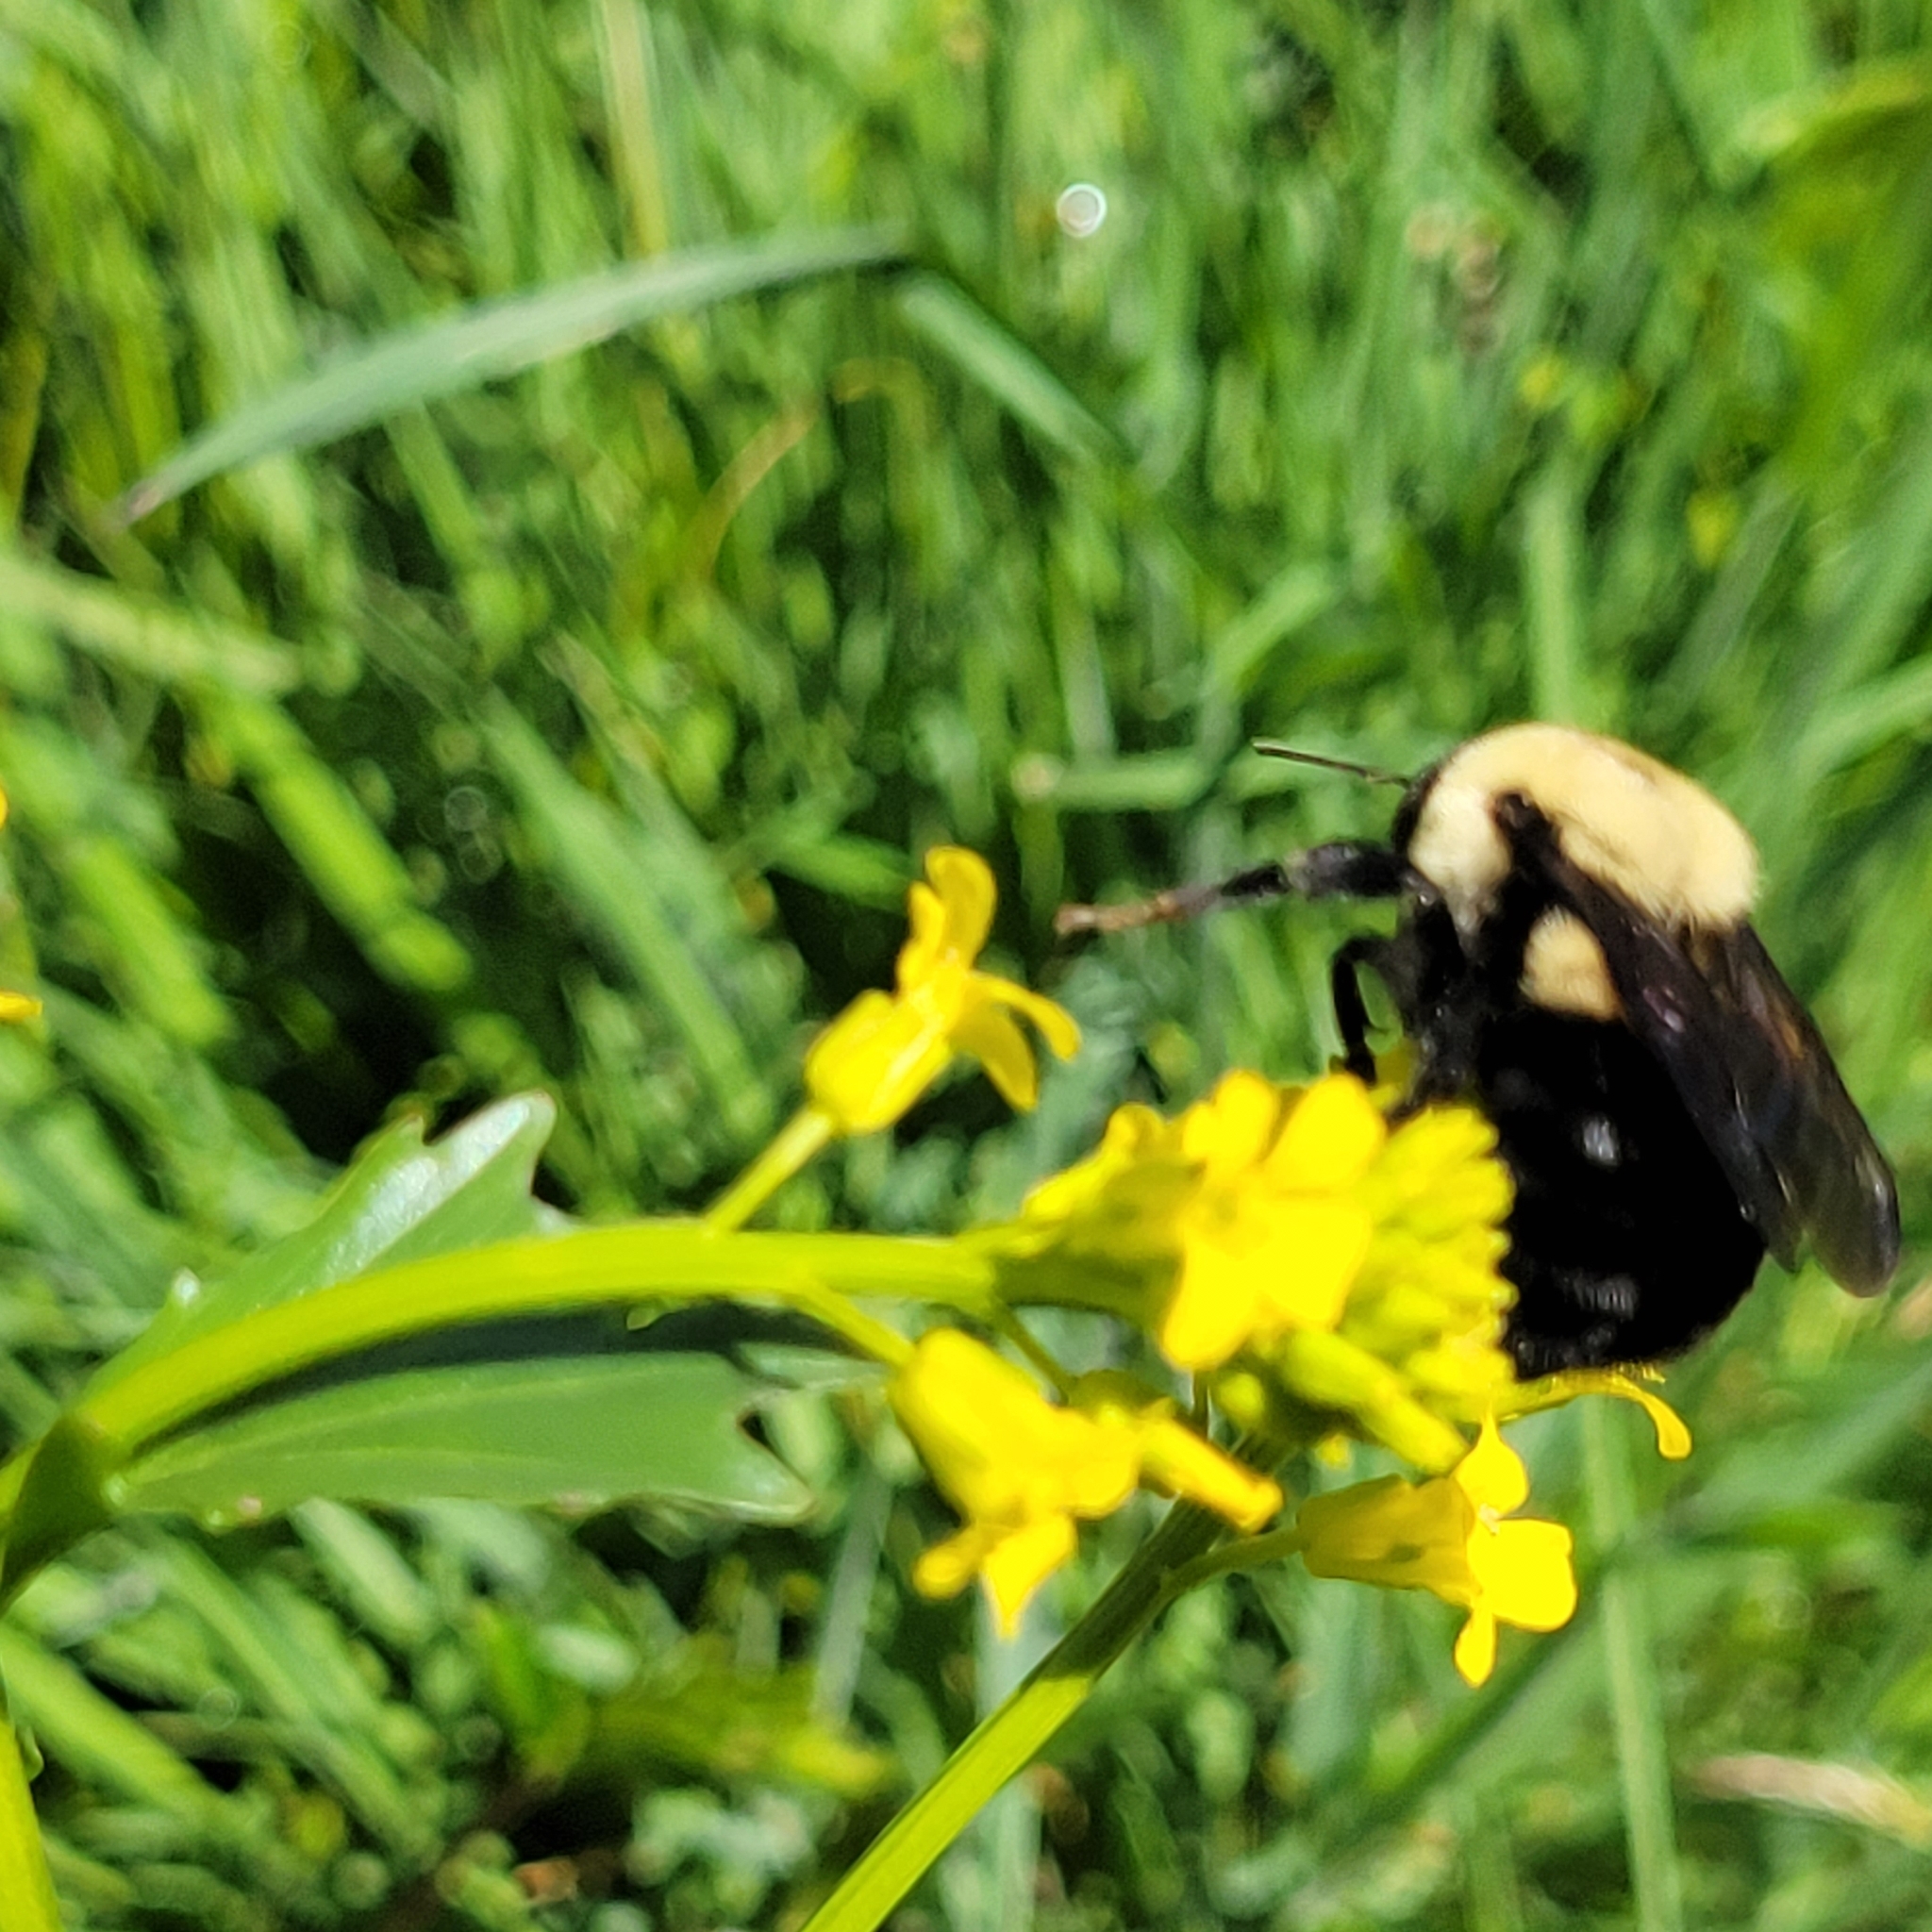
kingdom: Animalia
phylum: Arthropoda
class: Insecta
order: Hymenoptera
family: Apidae
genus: Bombus
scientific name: Bombus griseocollis
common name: Brown-belted bumble bee
